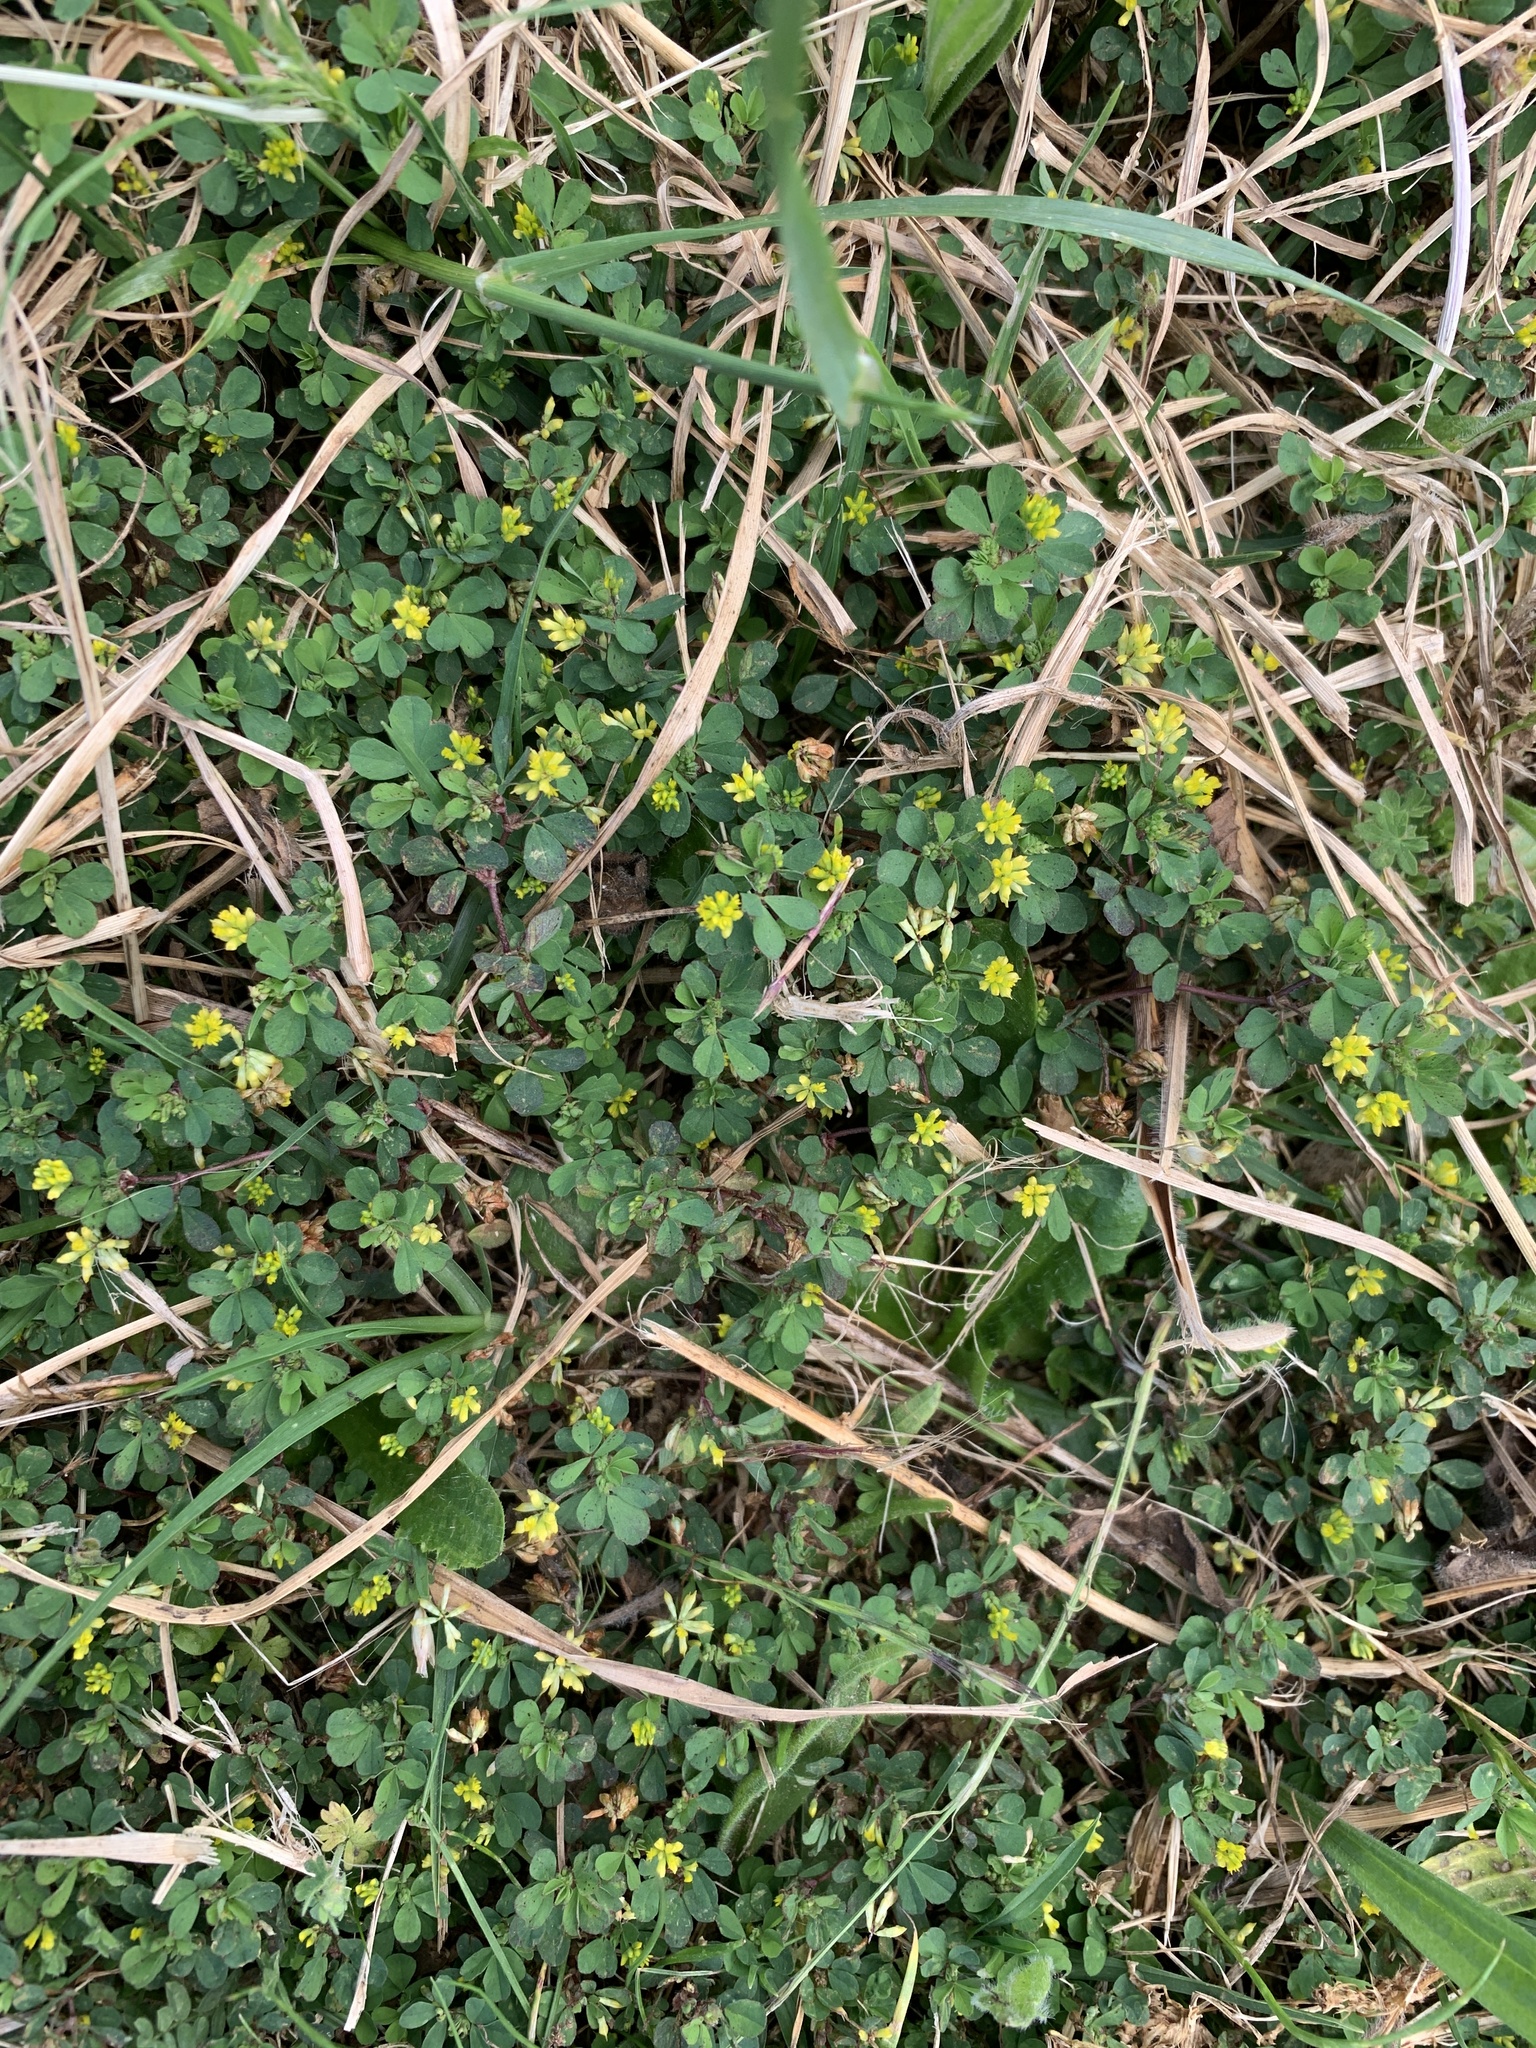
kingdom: Plantae
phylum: Tracheophyta
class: Magnoliopsida
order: Fabales
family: Fabaceae
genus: Trifolium
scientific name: Trifolium dubium
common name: Suckling clover
